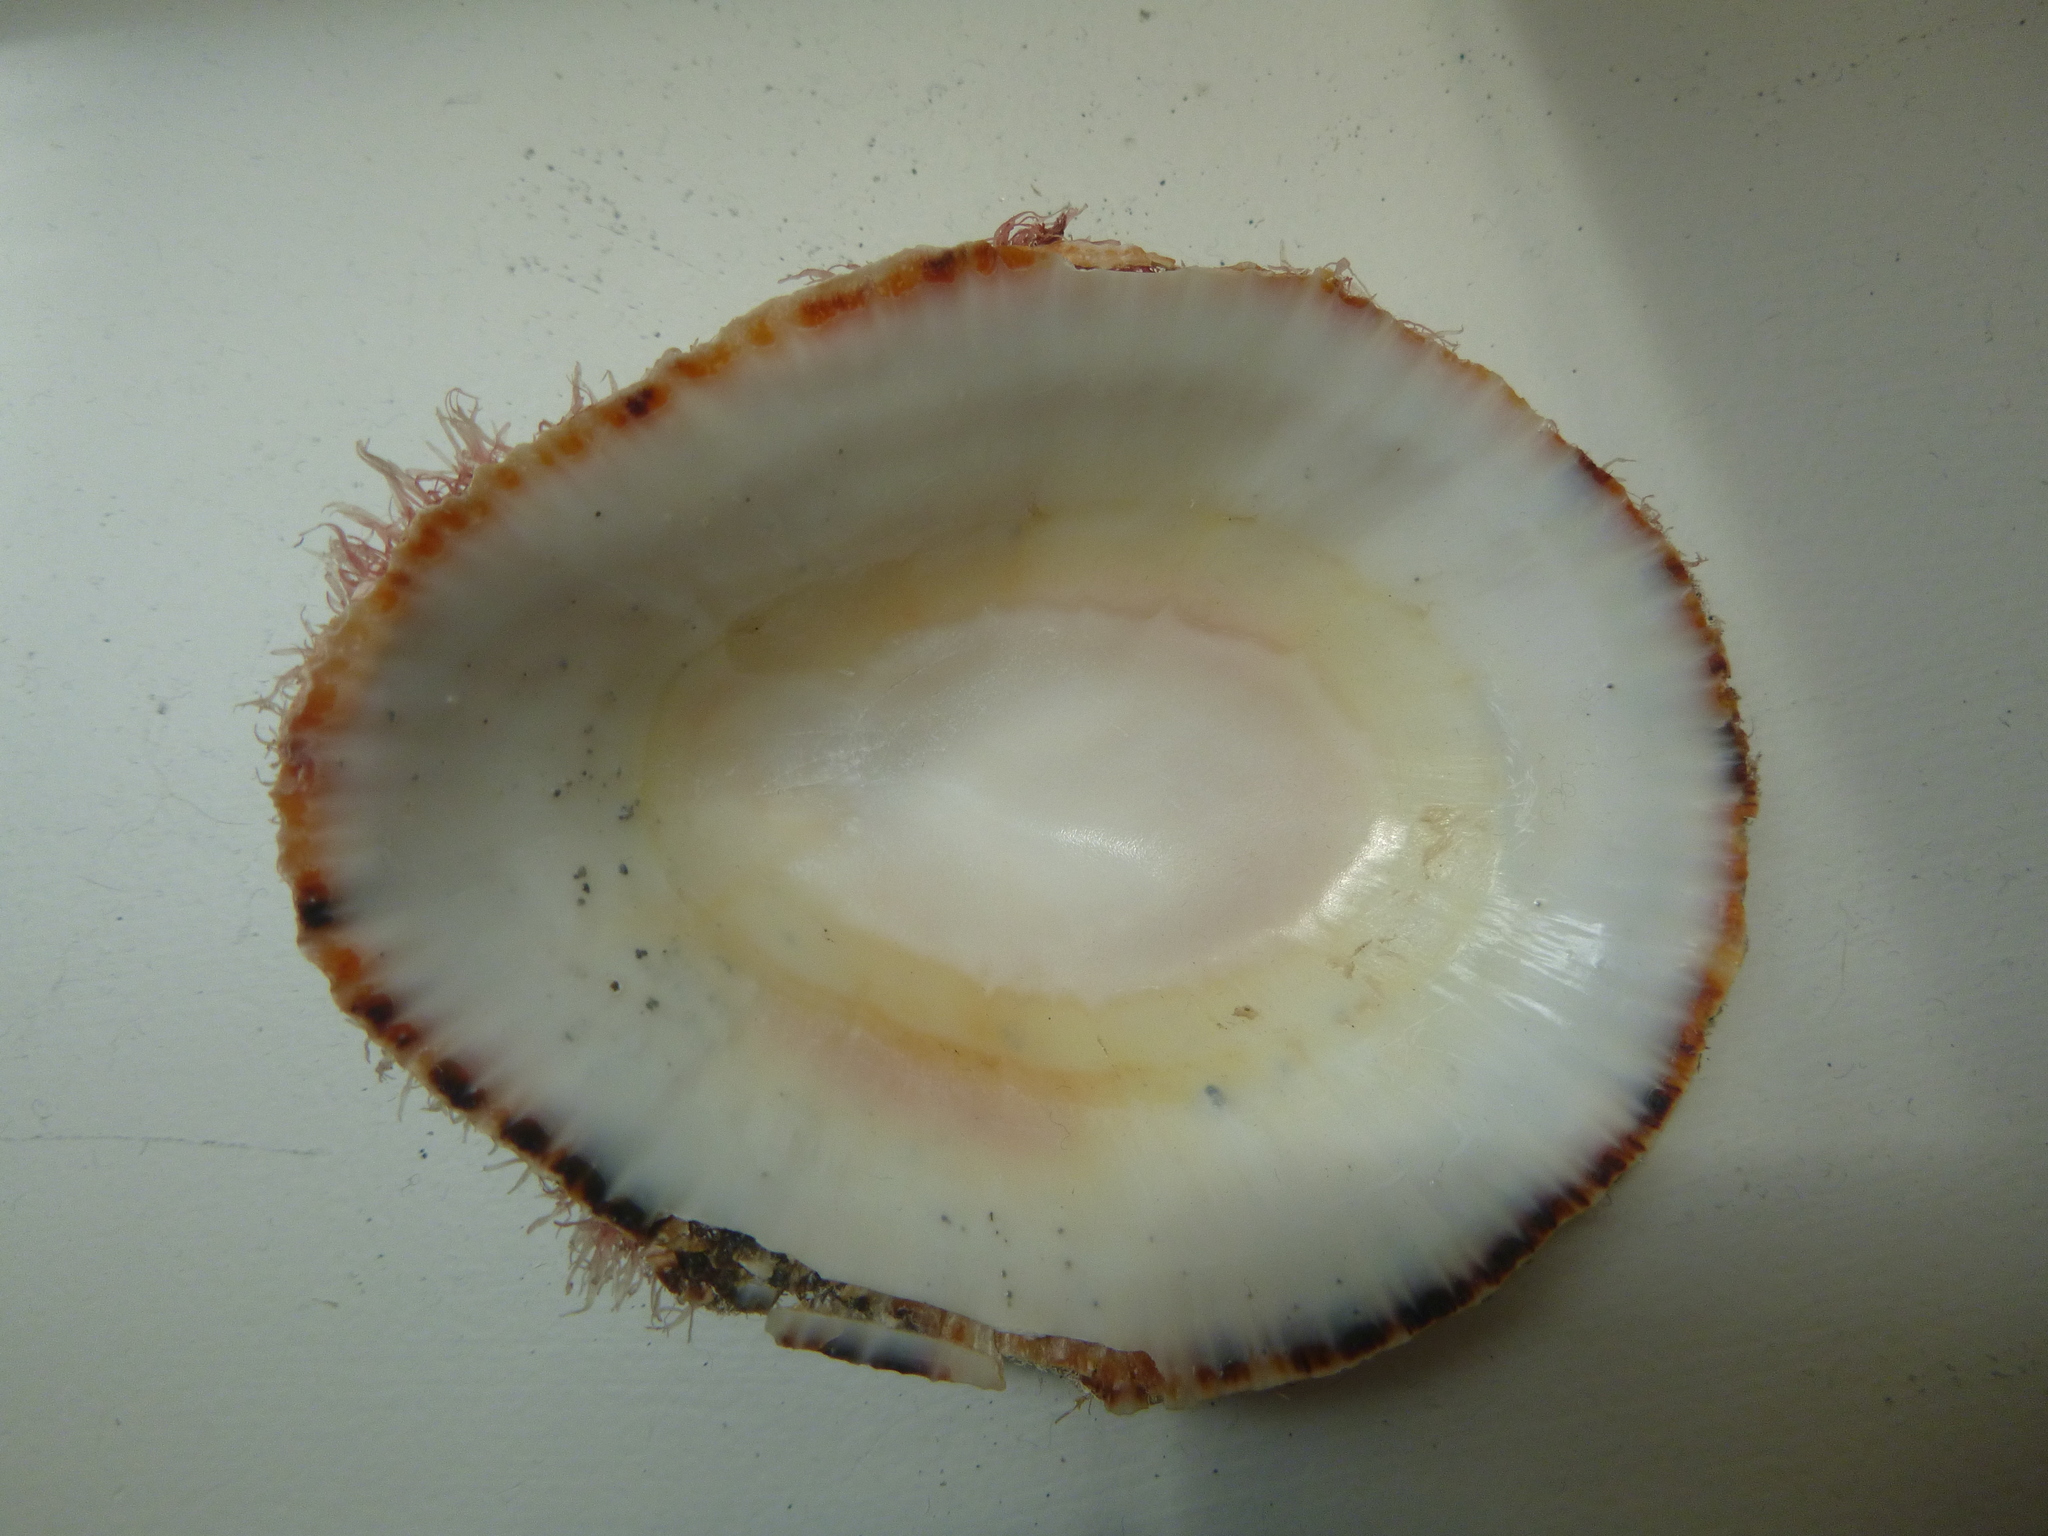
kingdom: Animalia
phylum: Mollusca
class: Gastropoda
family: Patellidae
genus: Scutellastra
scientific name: Scutellastra kermadecensis
